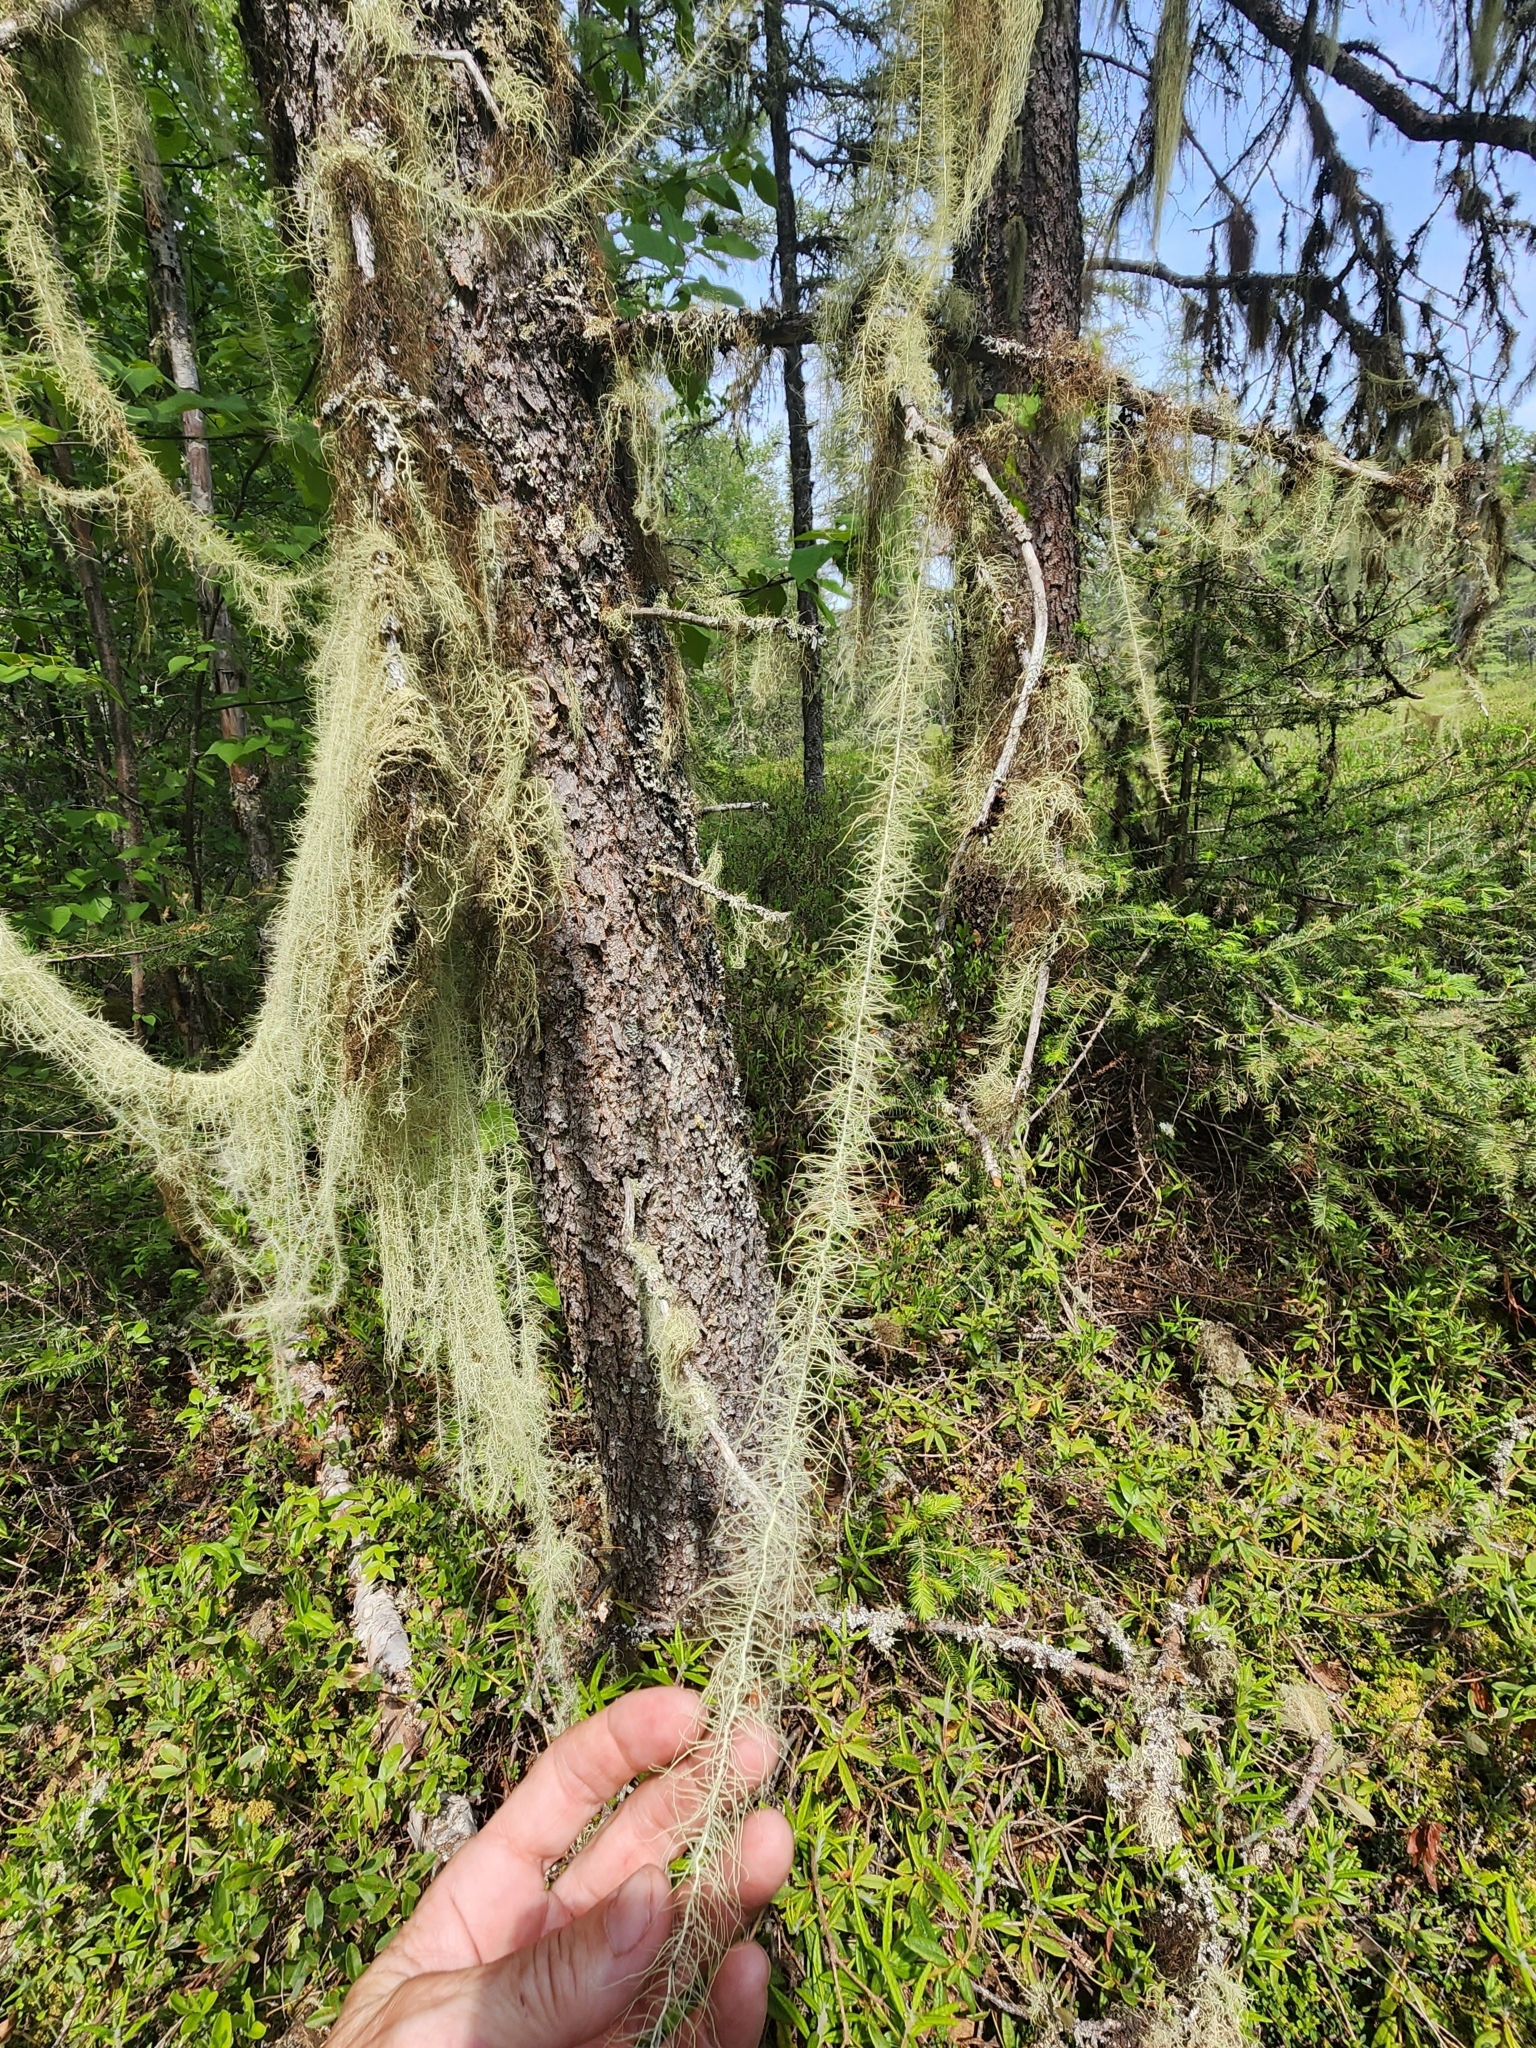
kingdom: Fungi
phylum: Ascomycota
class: Lecanoromycetes
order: Lecanorales
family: Parmeliaceae
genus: Dolichousnea
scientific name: Dolichousnea longissima
